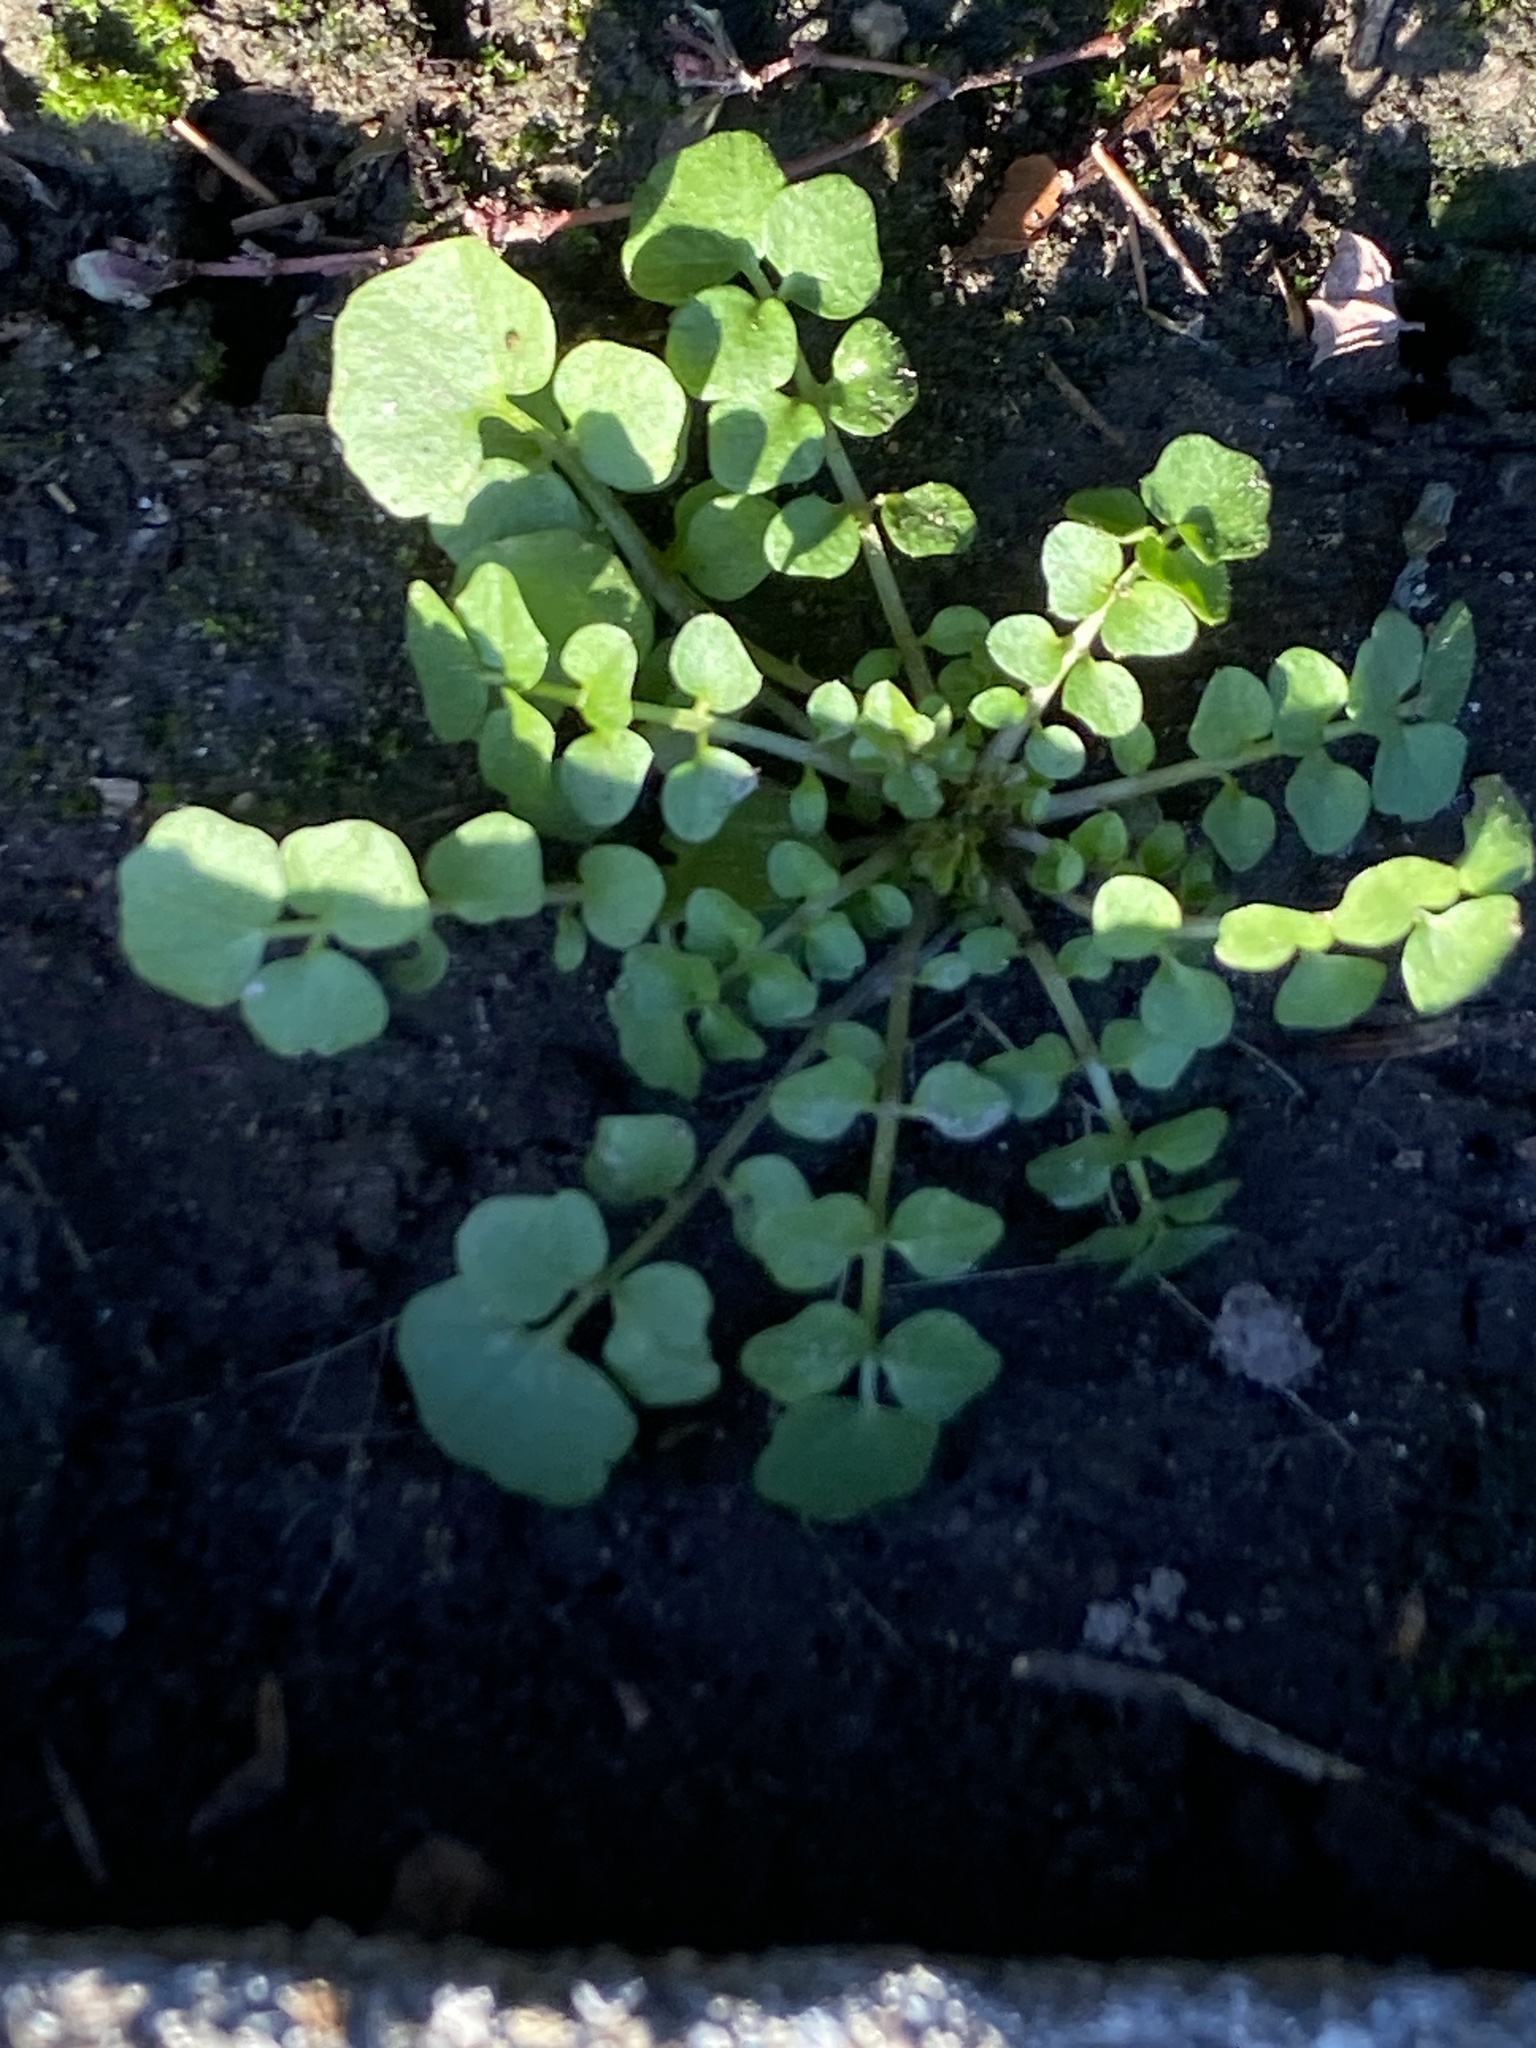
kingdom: Plantae
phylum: Tracheophyta
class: Magnoliopsida
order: Brassicales
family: Brassicaceae
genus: Cardamine
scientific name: Cardamine hirsuta
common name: Hairy bittercress
